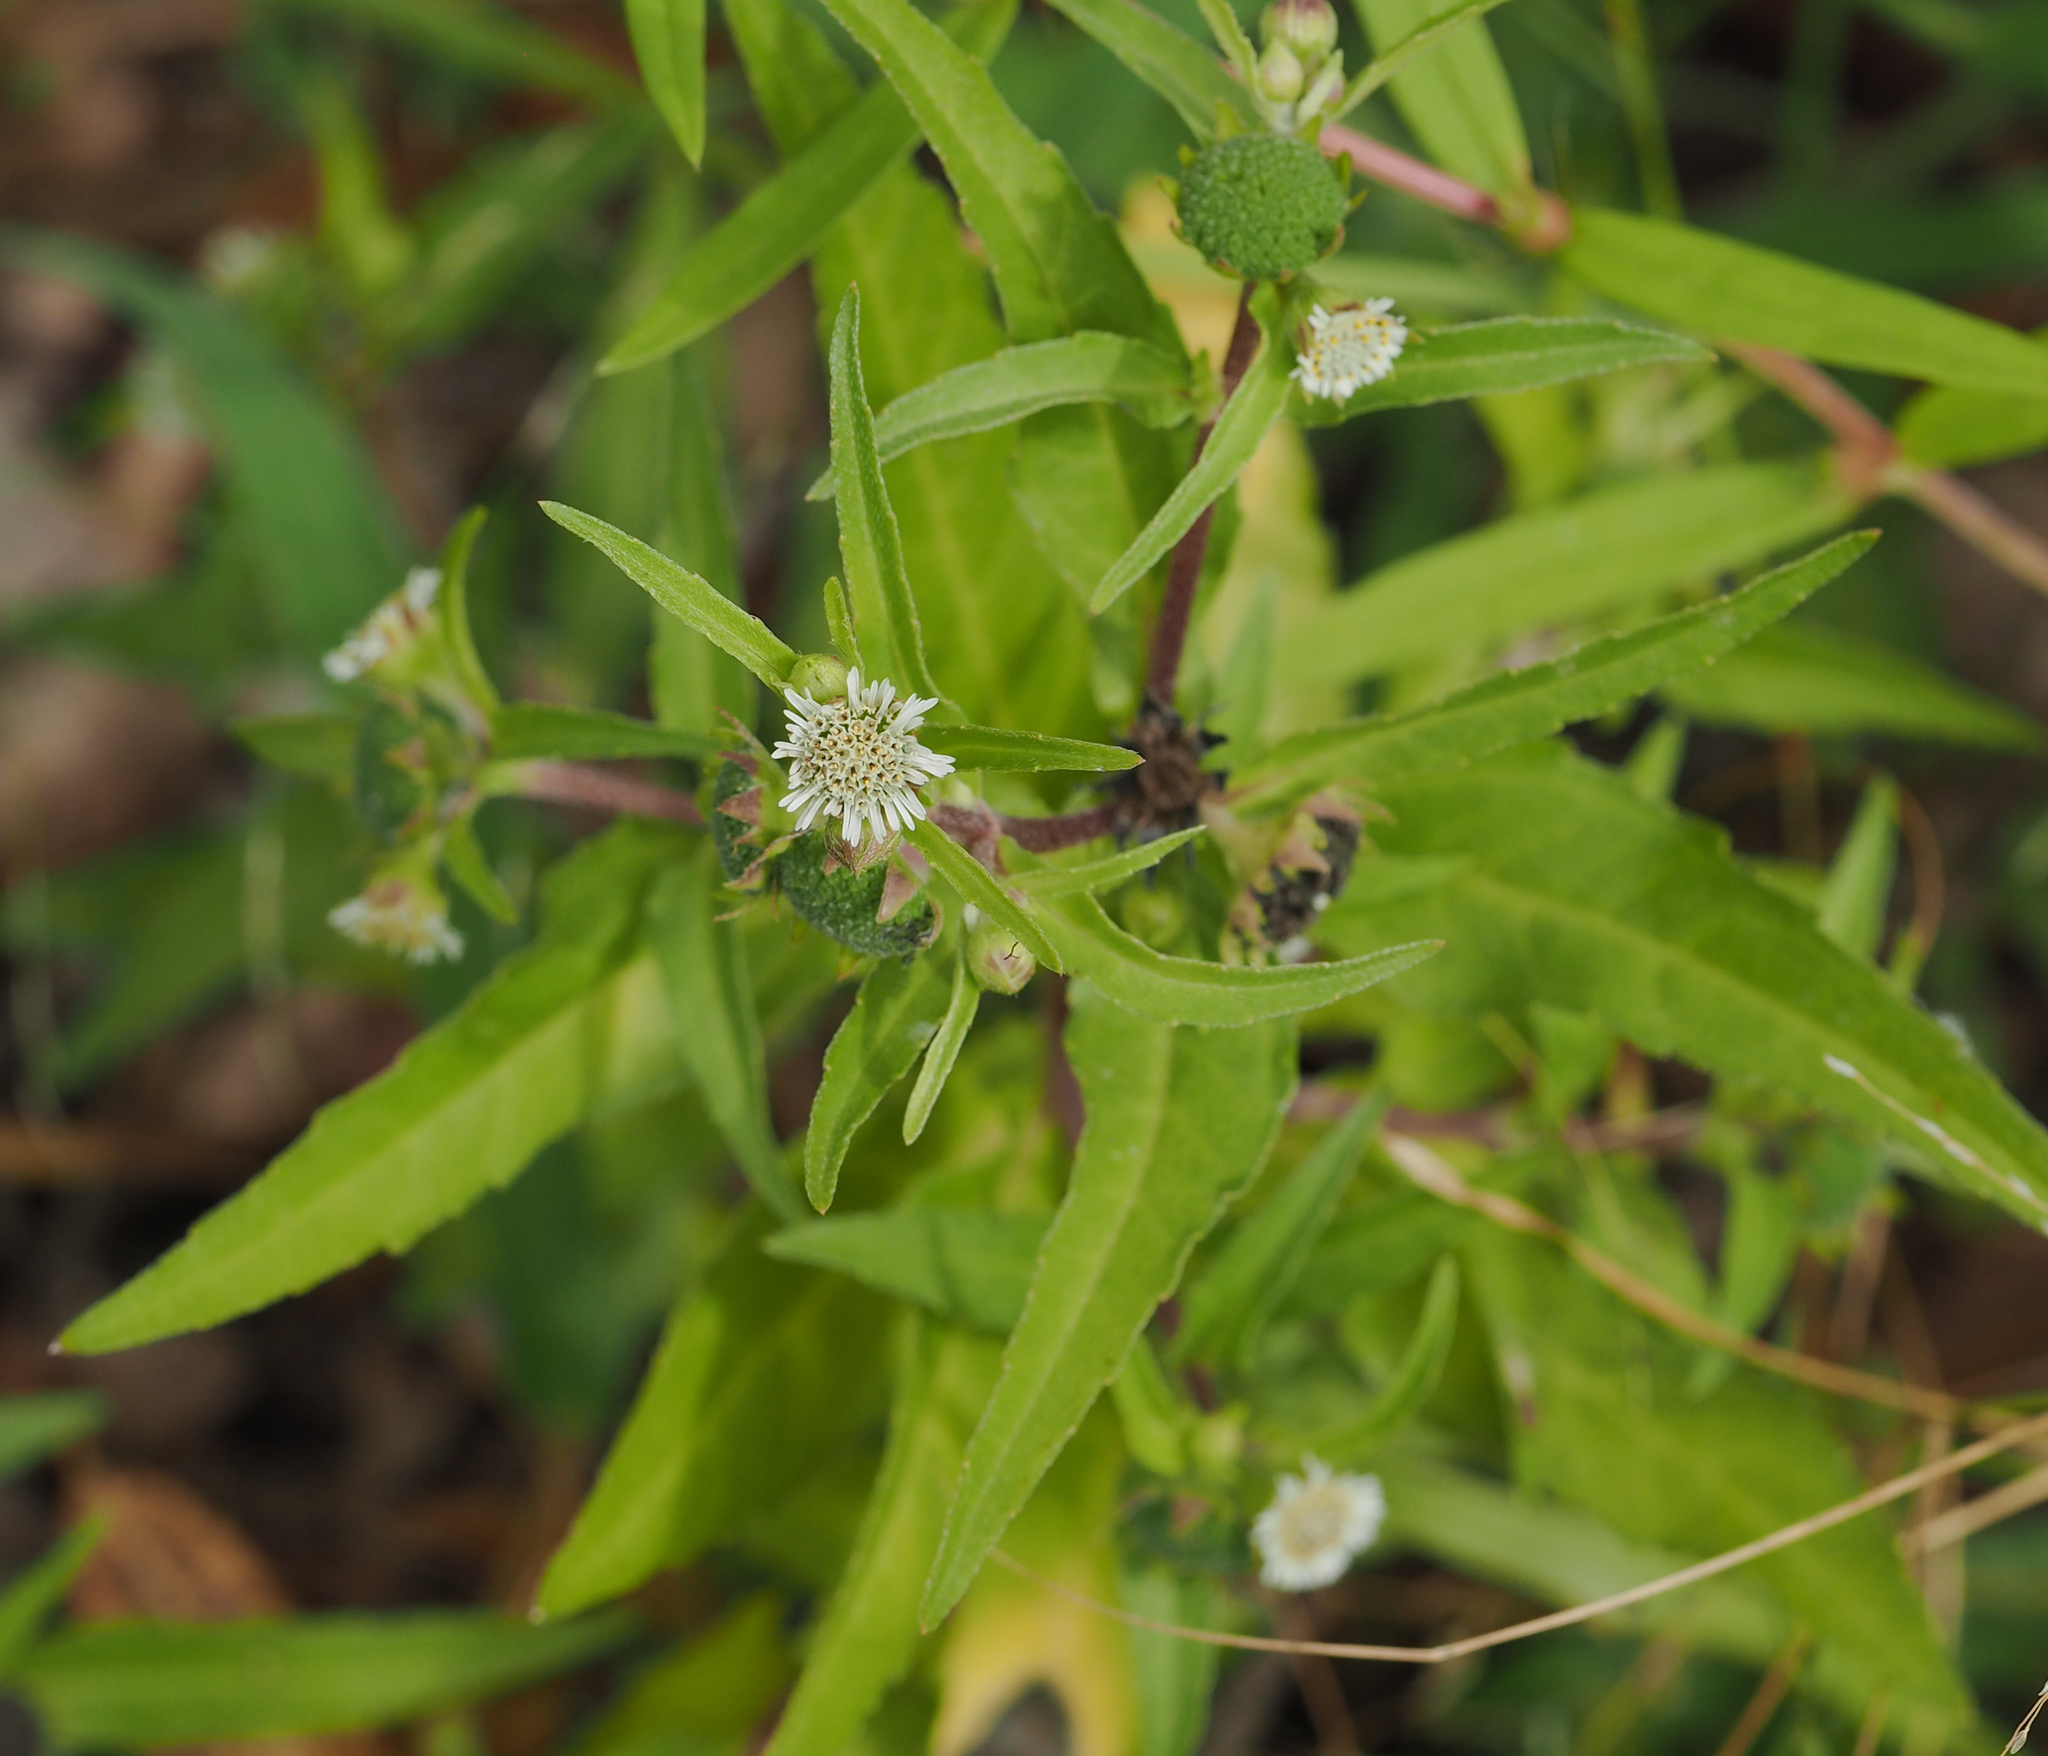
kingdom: Plantae
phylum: Tracheophyta
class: Magnoliopsida
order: Asterales
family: Asteraceae
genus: Eclipta
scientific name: Eclipta prostrata
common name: False daisy
